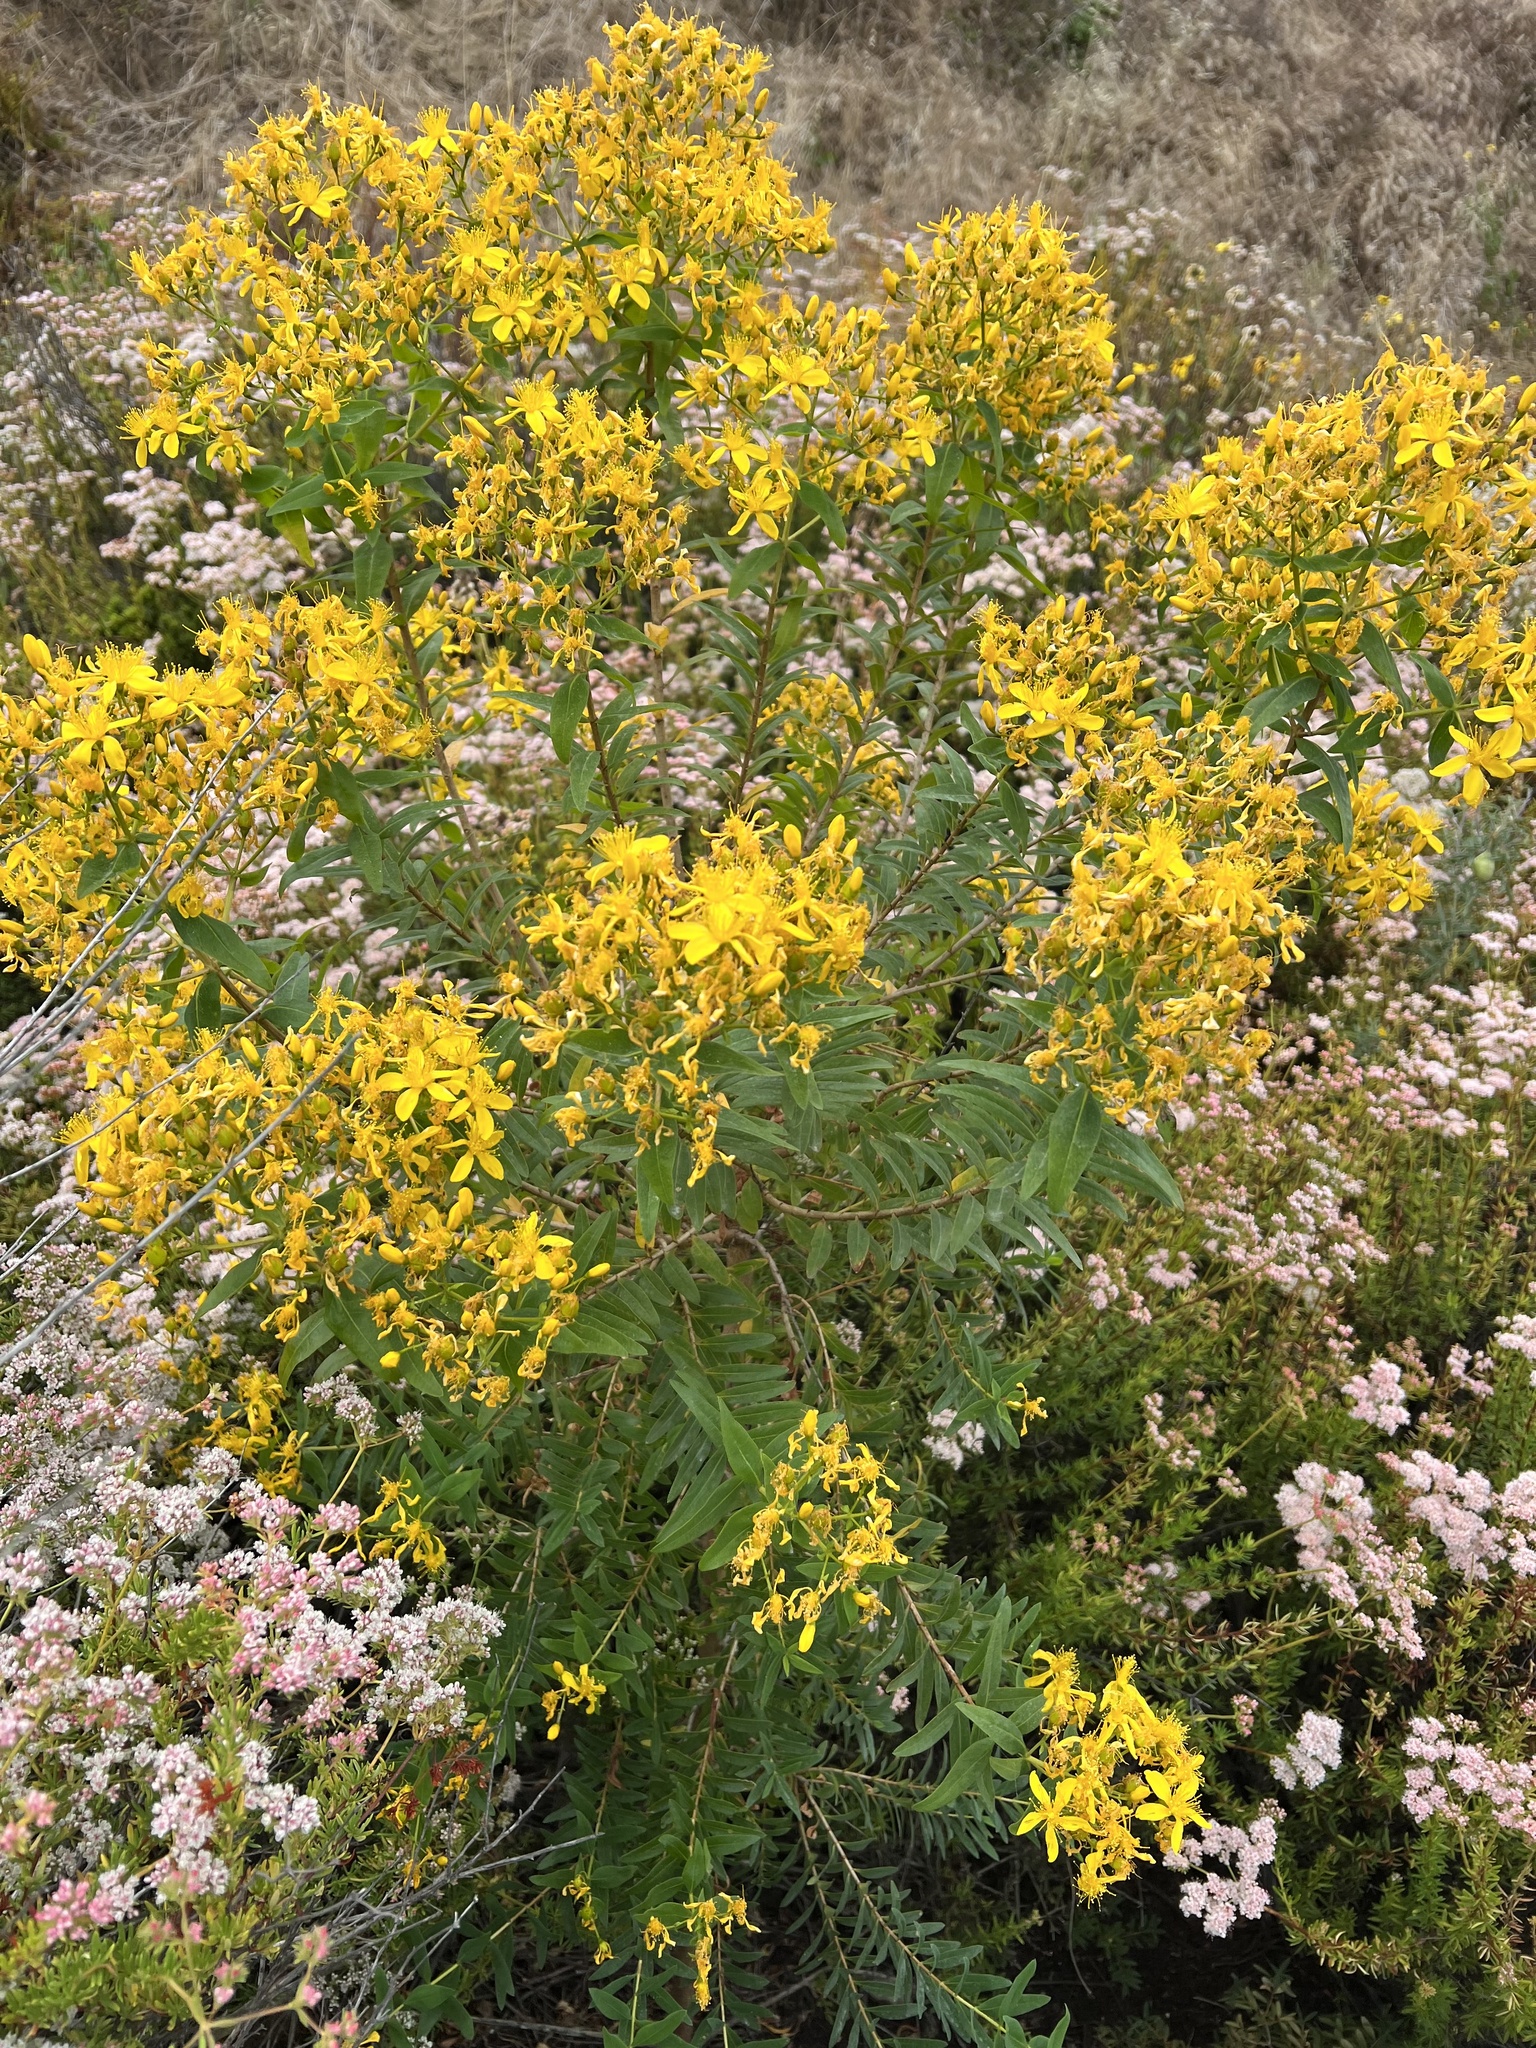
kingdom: Plantae
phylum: Tracheophyta
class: Magnoliopsida
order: Malpighiales
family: Hypericaceae
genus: Hypericum
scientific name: Hypericum canariense
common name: Canary island st. johnswort
